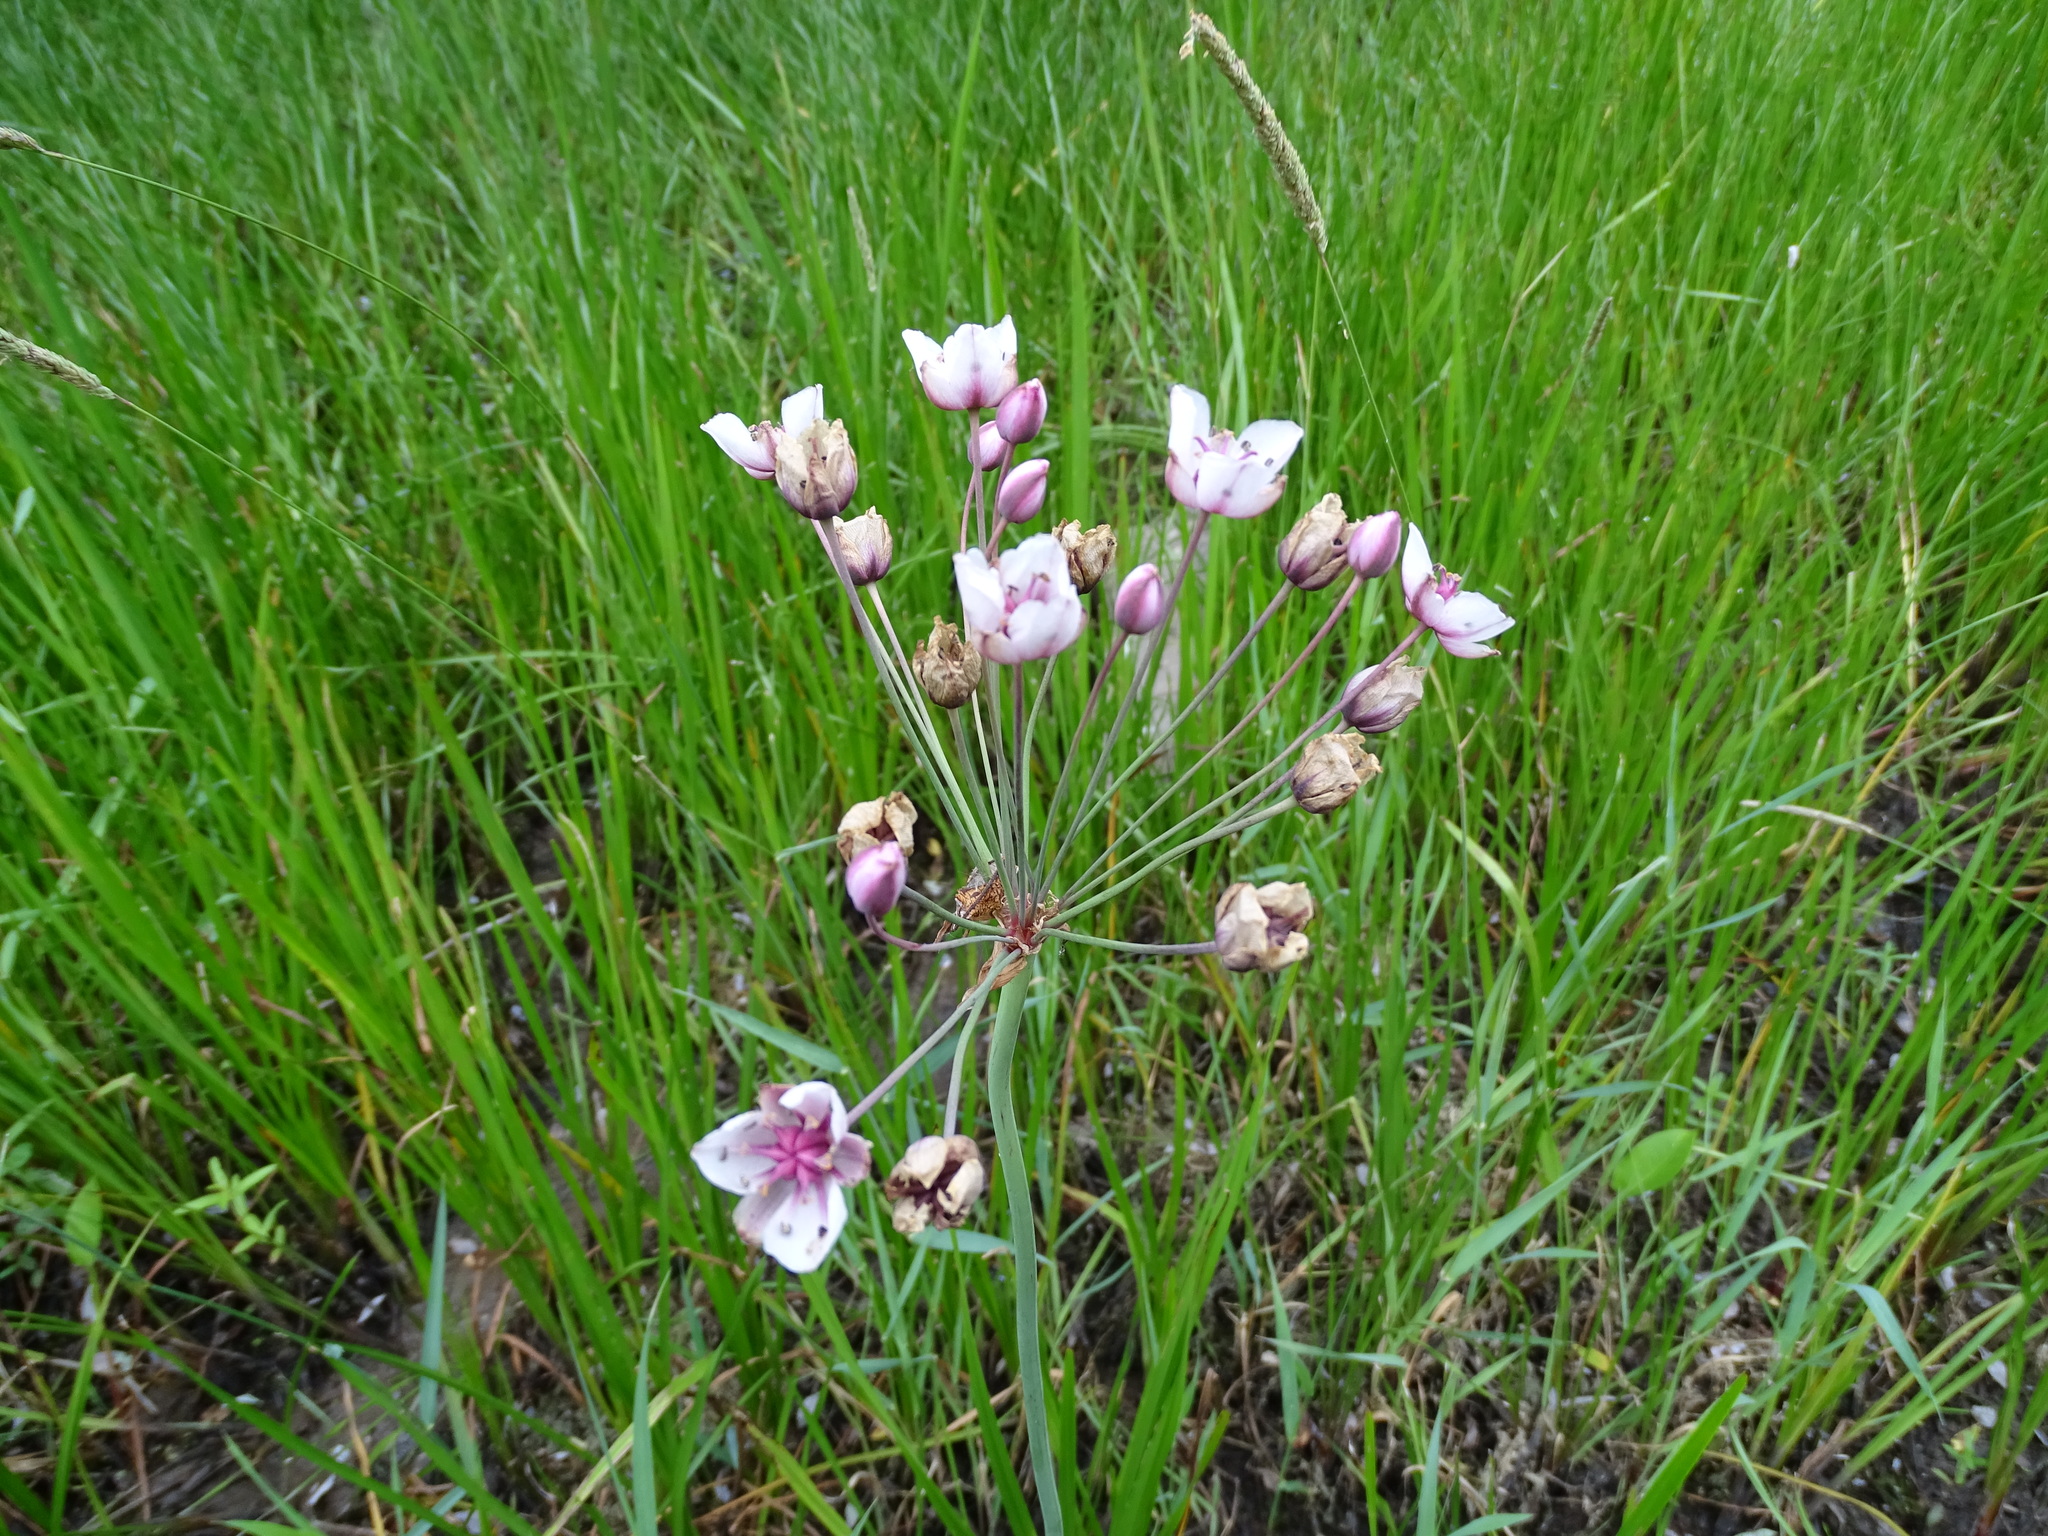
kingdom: Plantae
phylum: Tracheophyta
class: Liliopsida
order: Alismatales
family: Butomaceae
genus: Butomus
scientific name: Butomus umbellatus
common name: Flowering-rush
